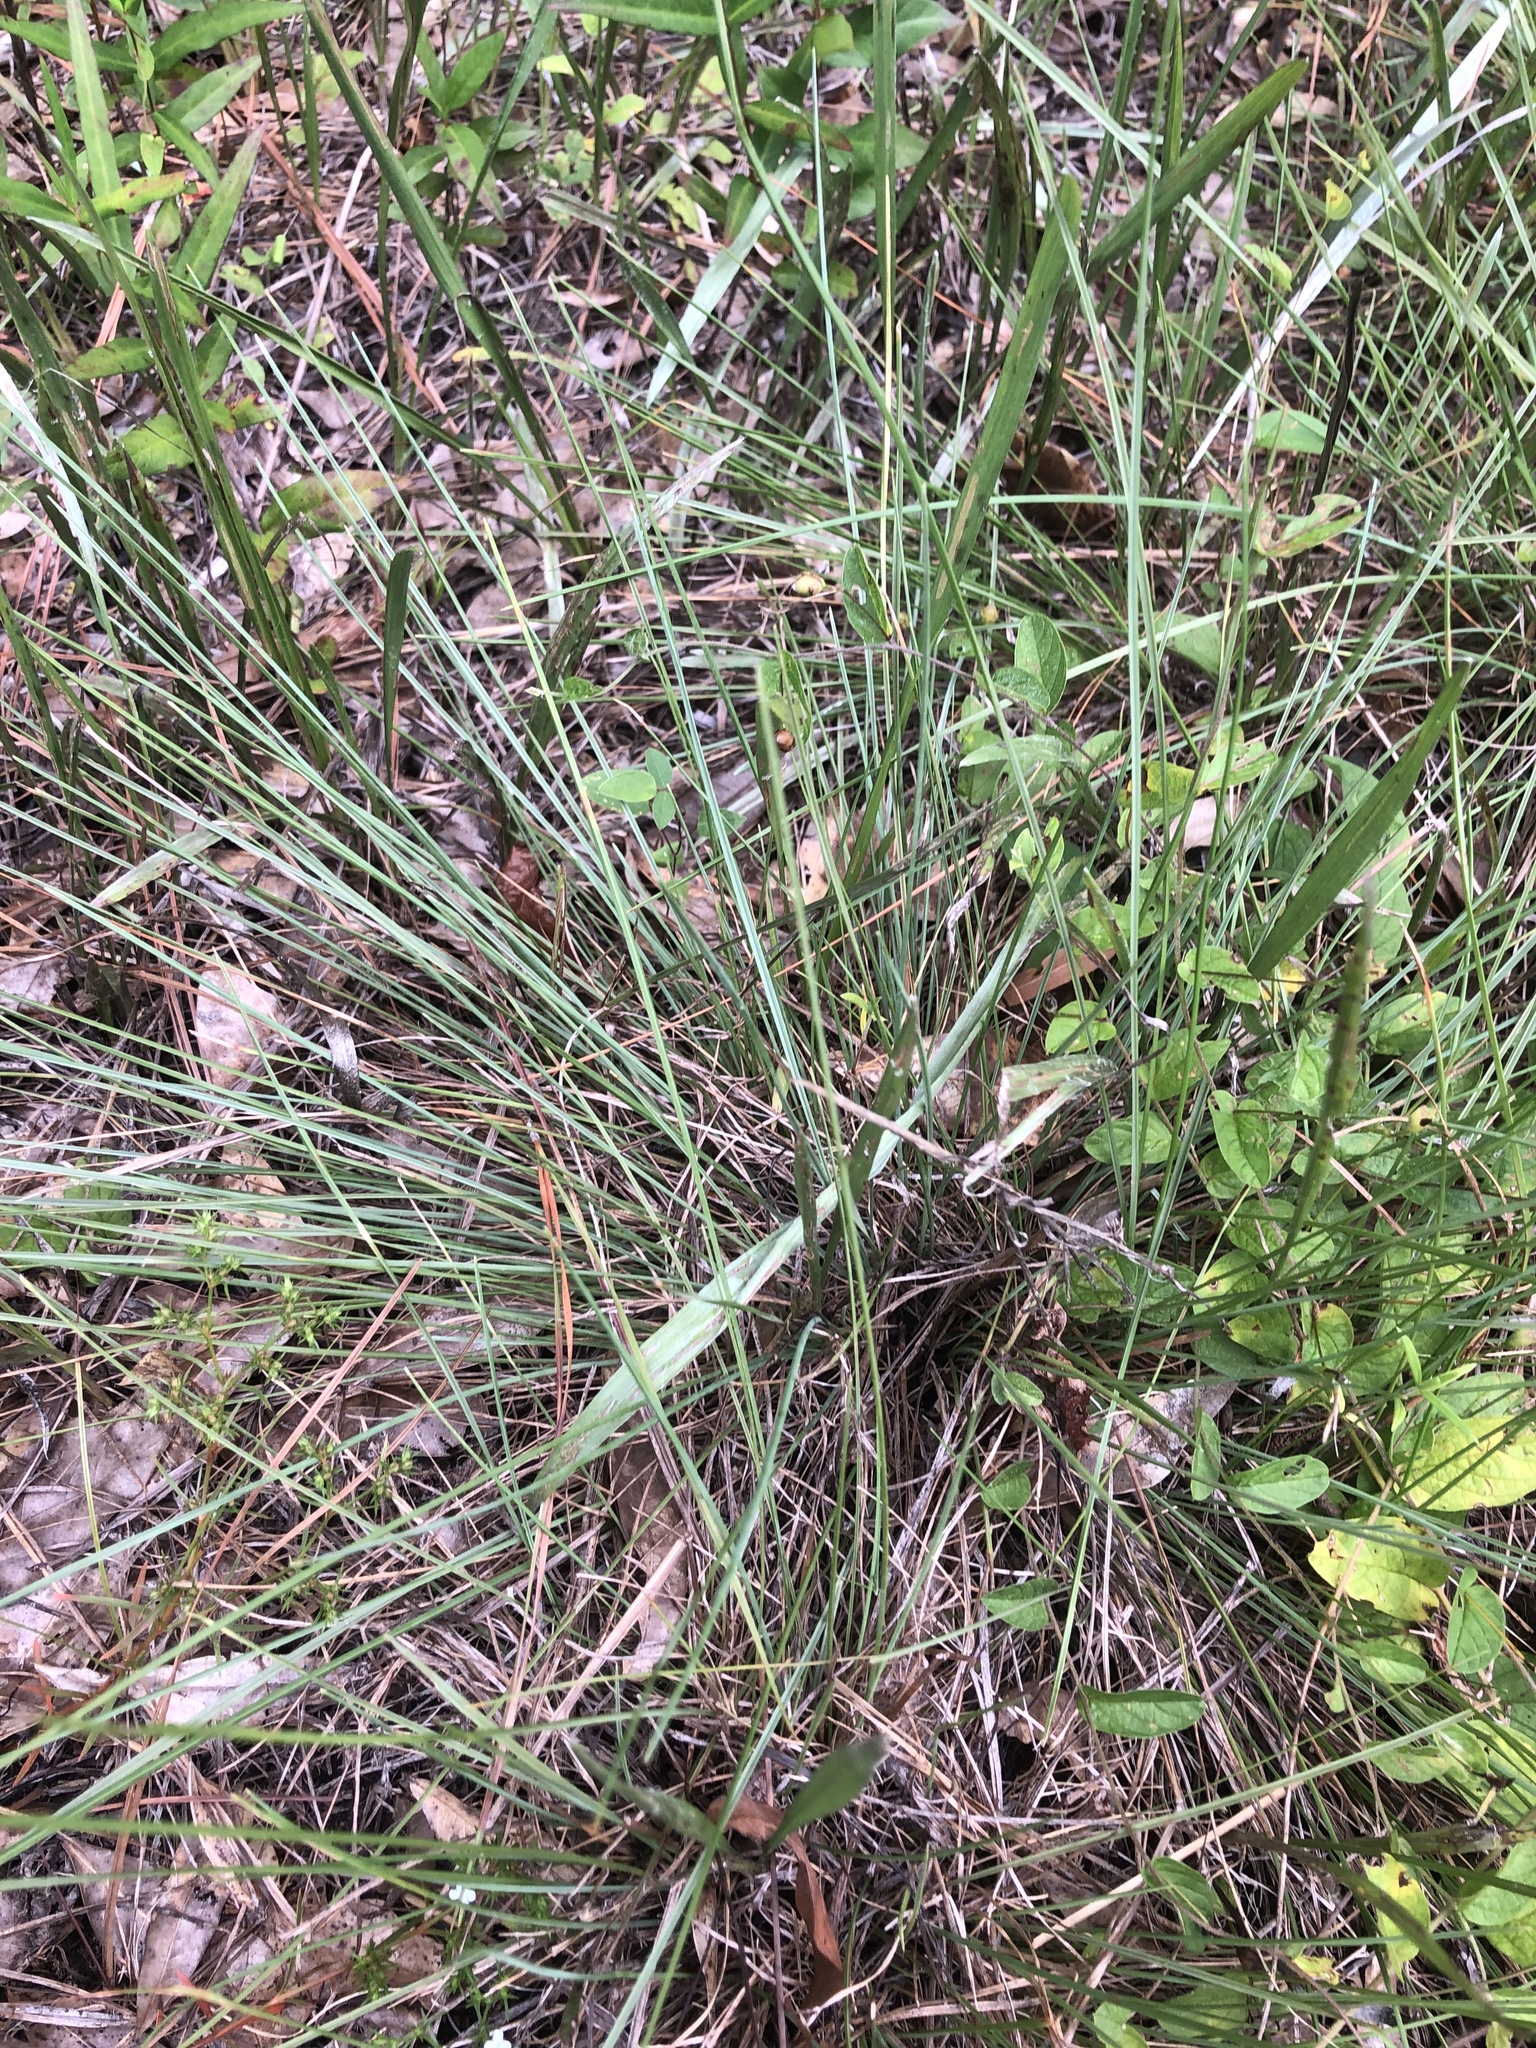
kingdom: Plantae
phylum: Tracheophyta
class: Liliopsida
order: Poales
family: Poaceae
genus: Sporobolus
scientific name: Sporobolus junceus
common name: Lizard grass
